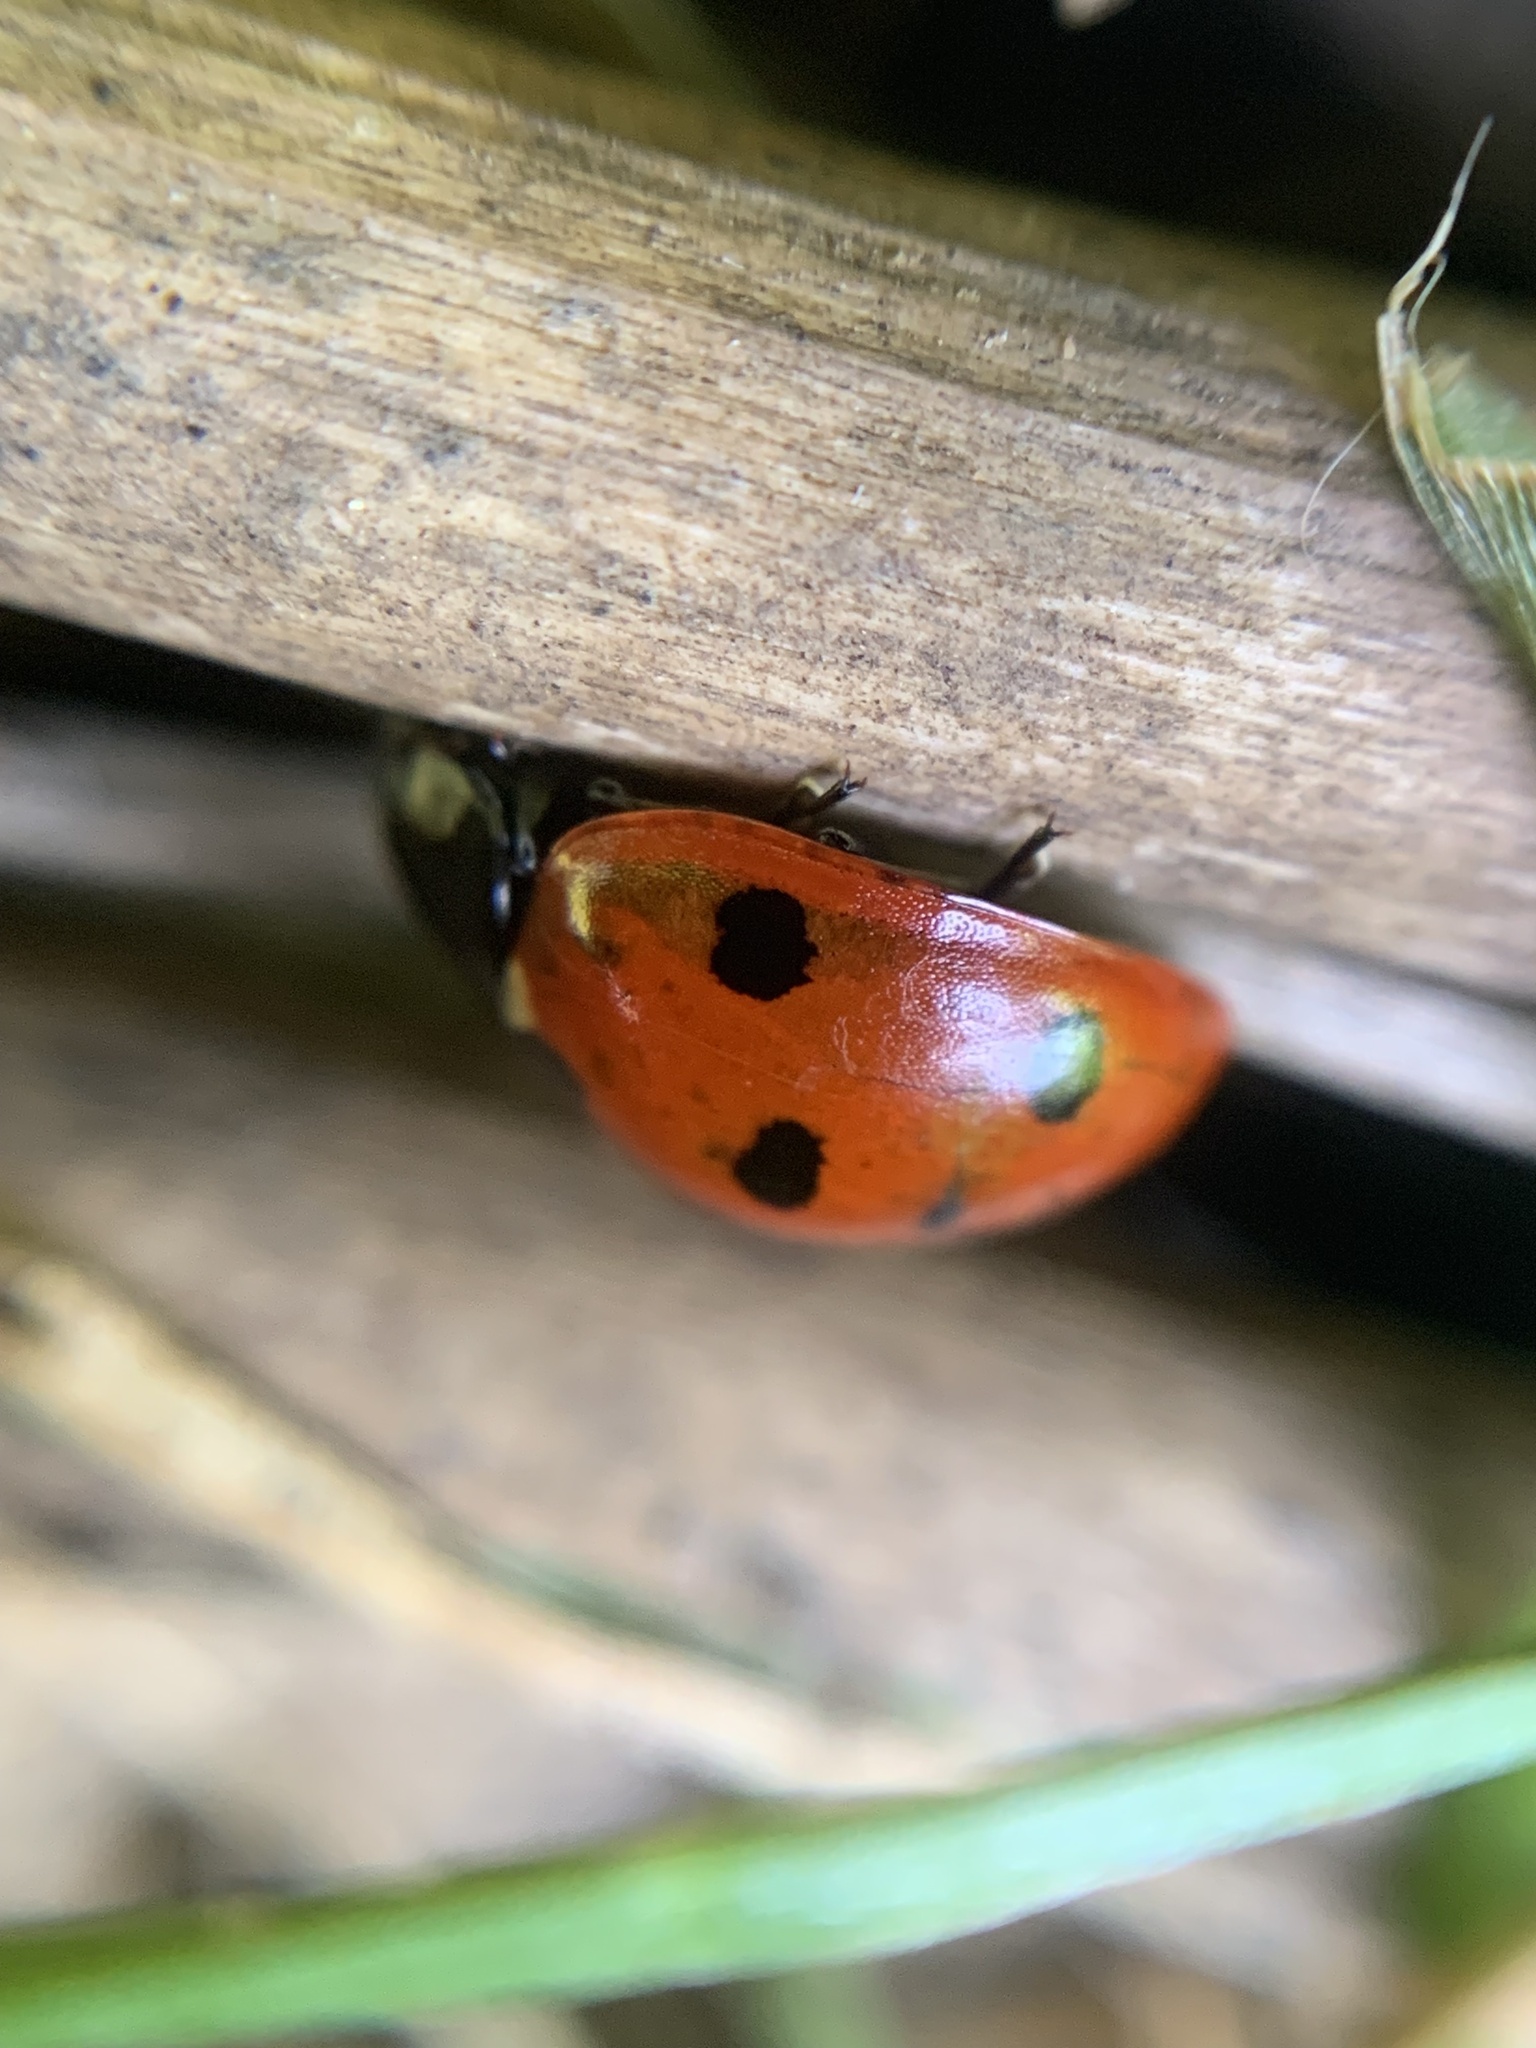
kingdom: Animalia
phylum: Arthropoda
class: Insecta
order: Coleoptera
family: Coccinellidae
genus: Coccinella
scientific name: Coccinella septempunctata
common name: Sevenspotted lady beetle
